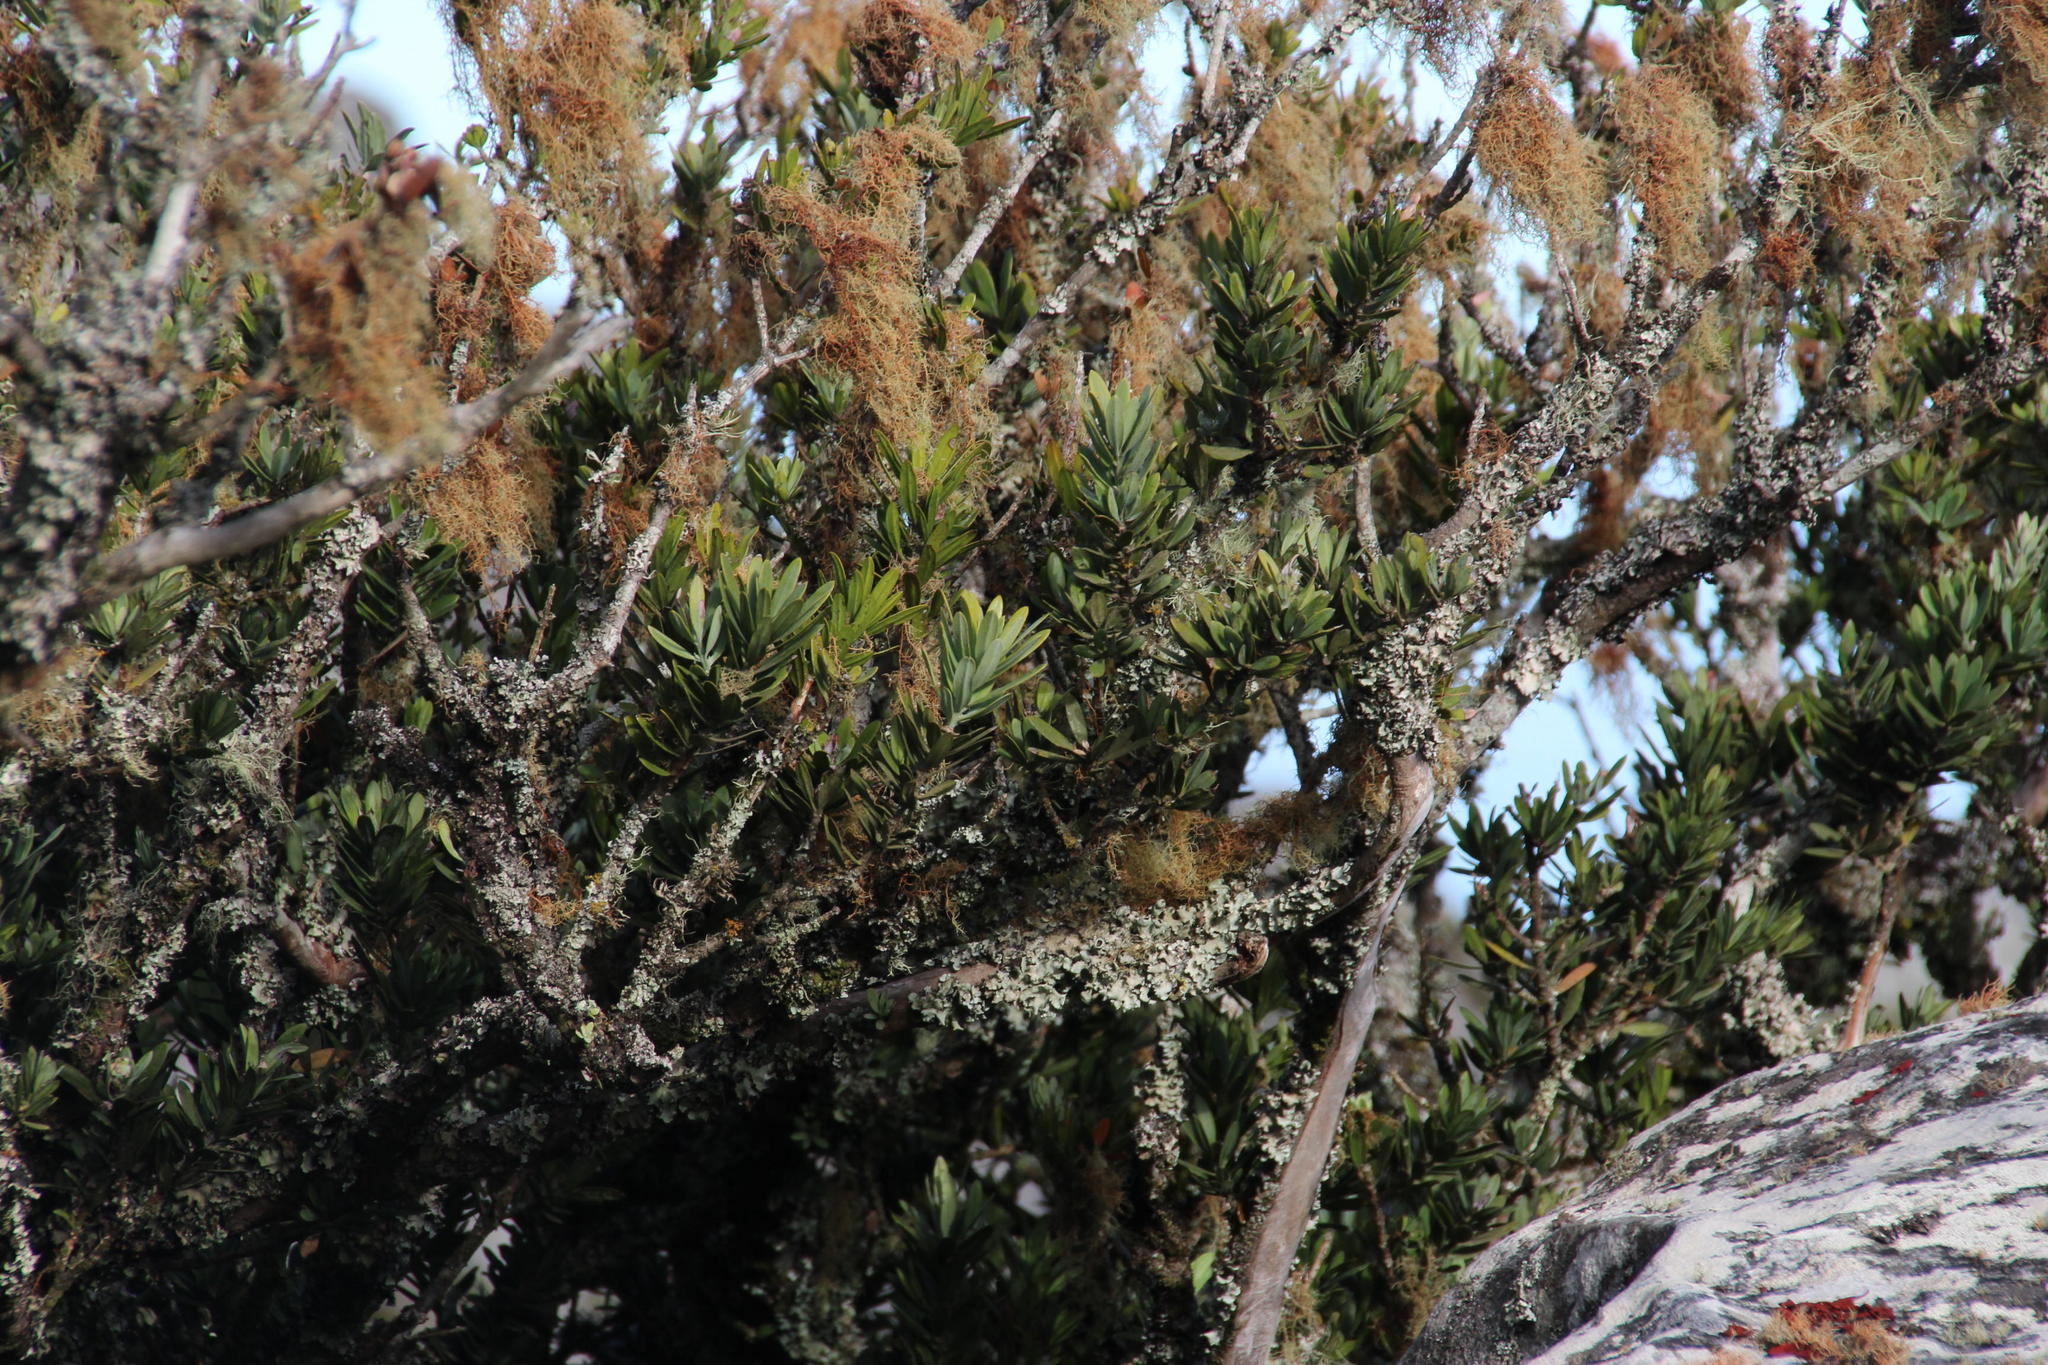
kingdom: Plantae
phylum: Tracheophyta
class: Pinopsida
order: Pinales
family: Podocarpaceae
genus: Podocarpus
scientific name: Podocarpus latifolius
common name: True yellowwood
